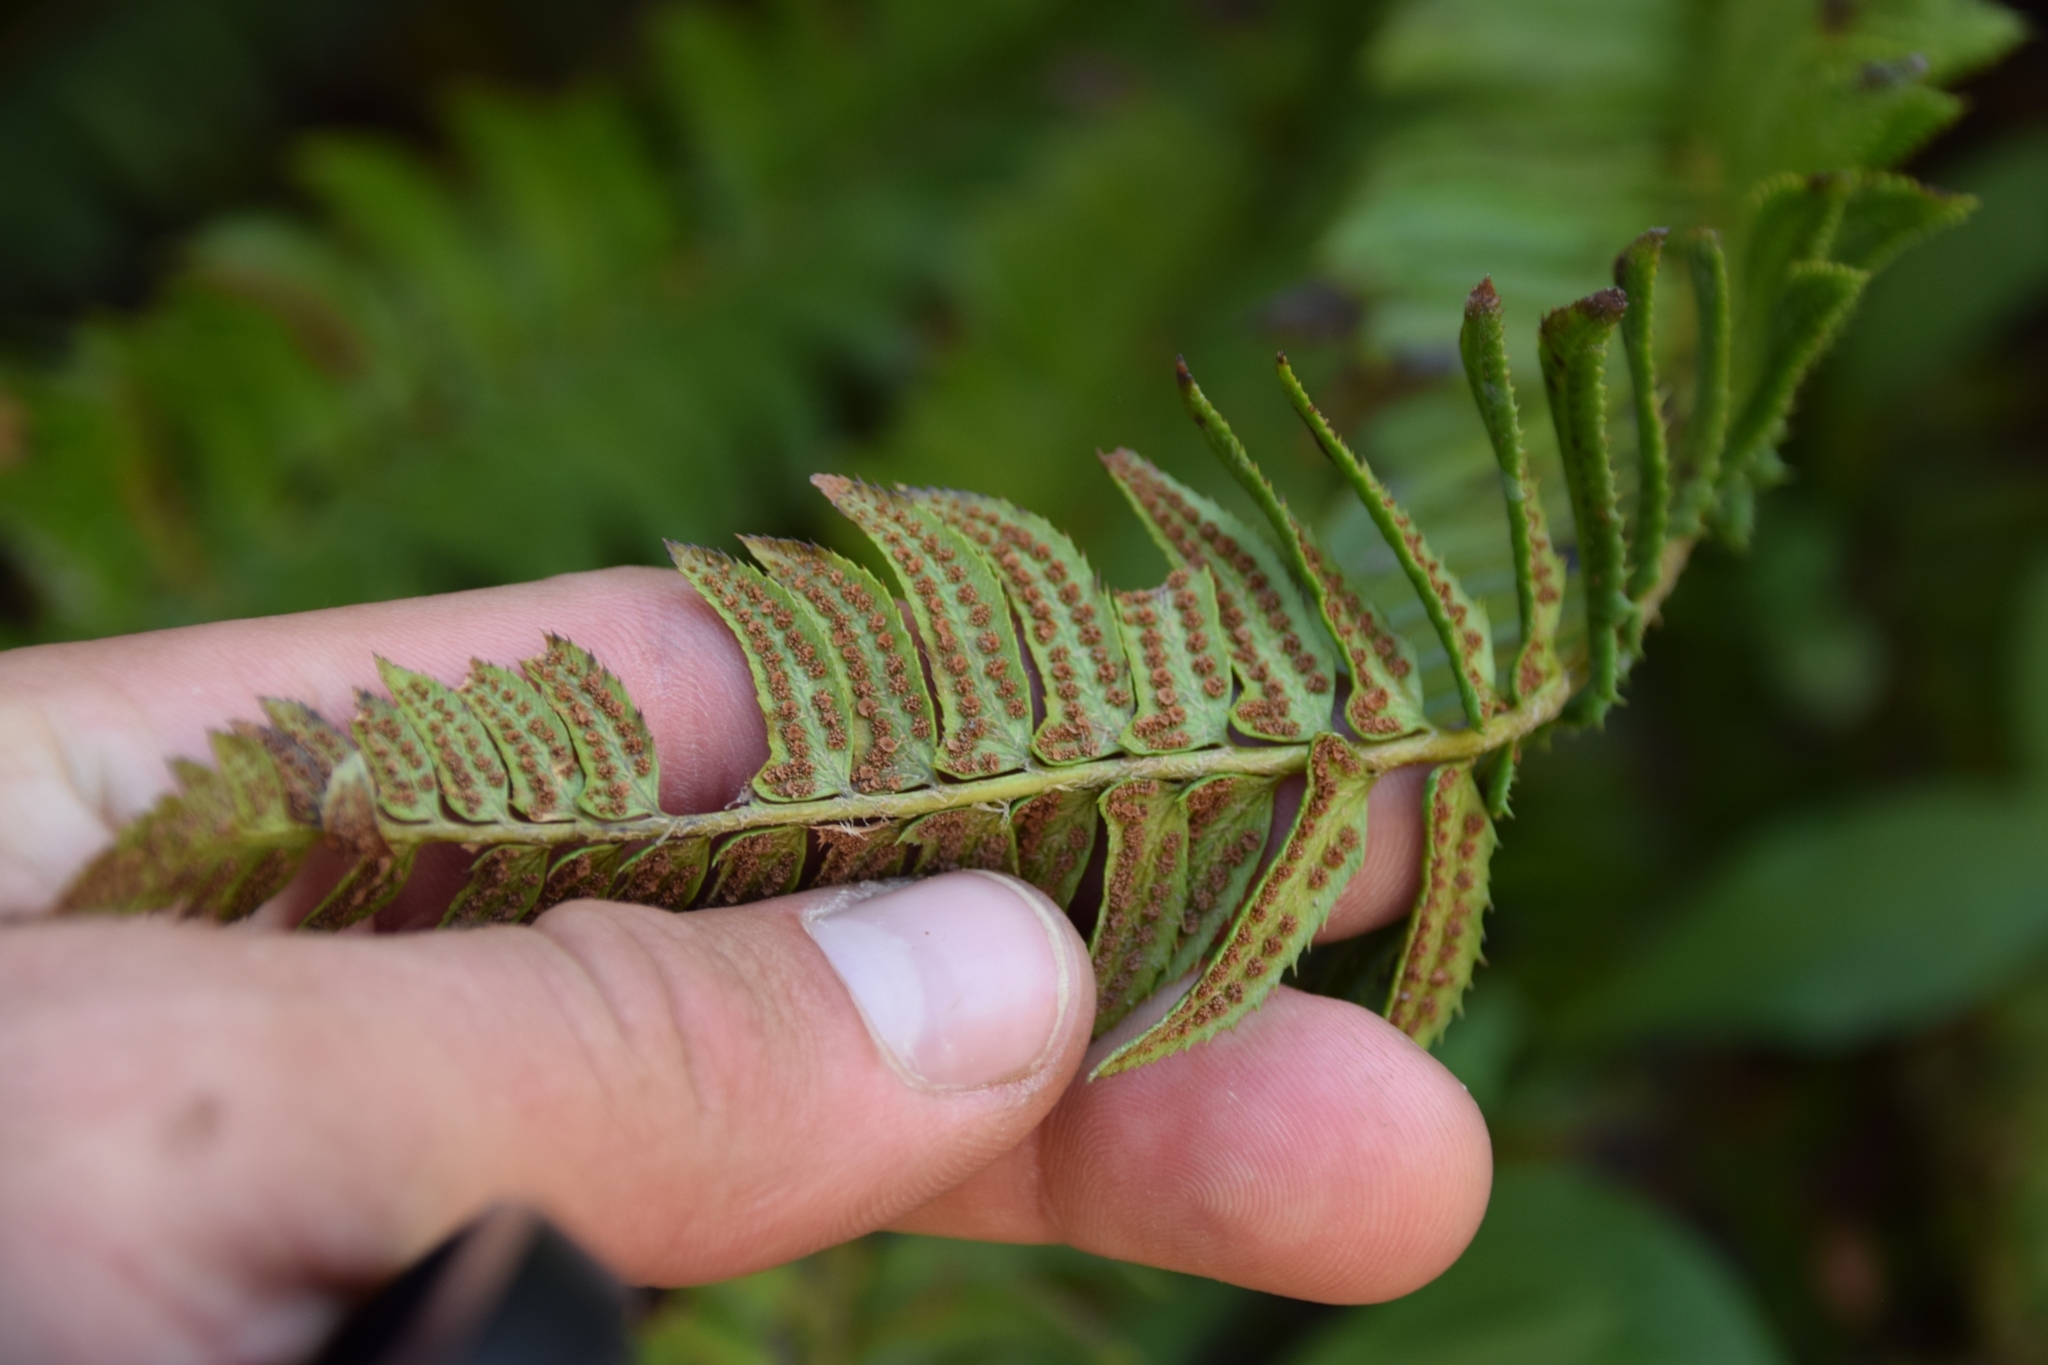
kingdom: Plantae
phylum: Tracheophyta
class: Polypodiopsida
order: Polypodiales
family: Dryopteridaceae
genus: Polystichum
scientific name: Polystichum lonchitis
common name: Holly fern
